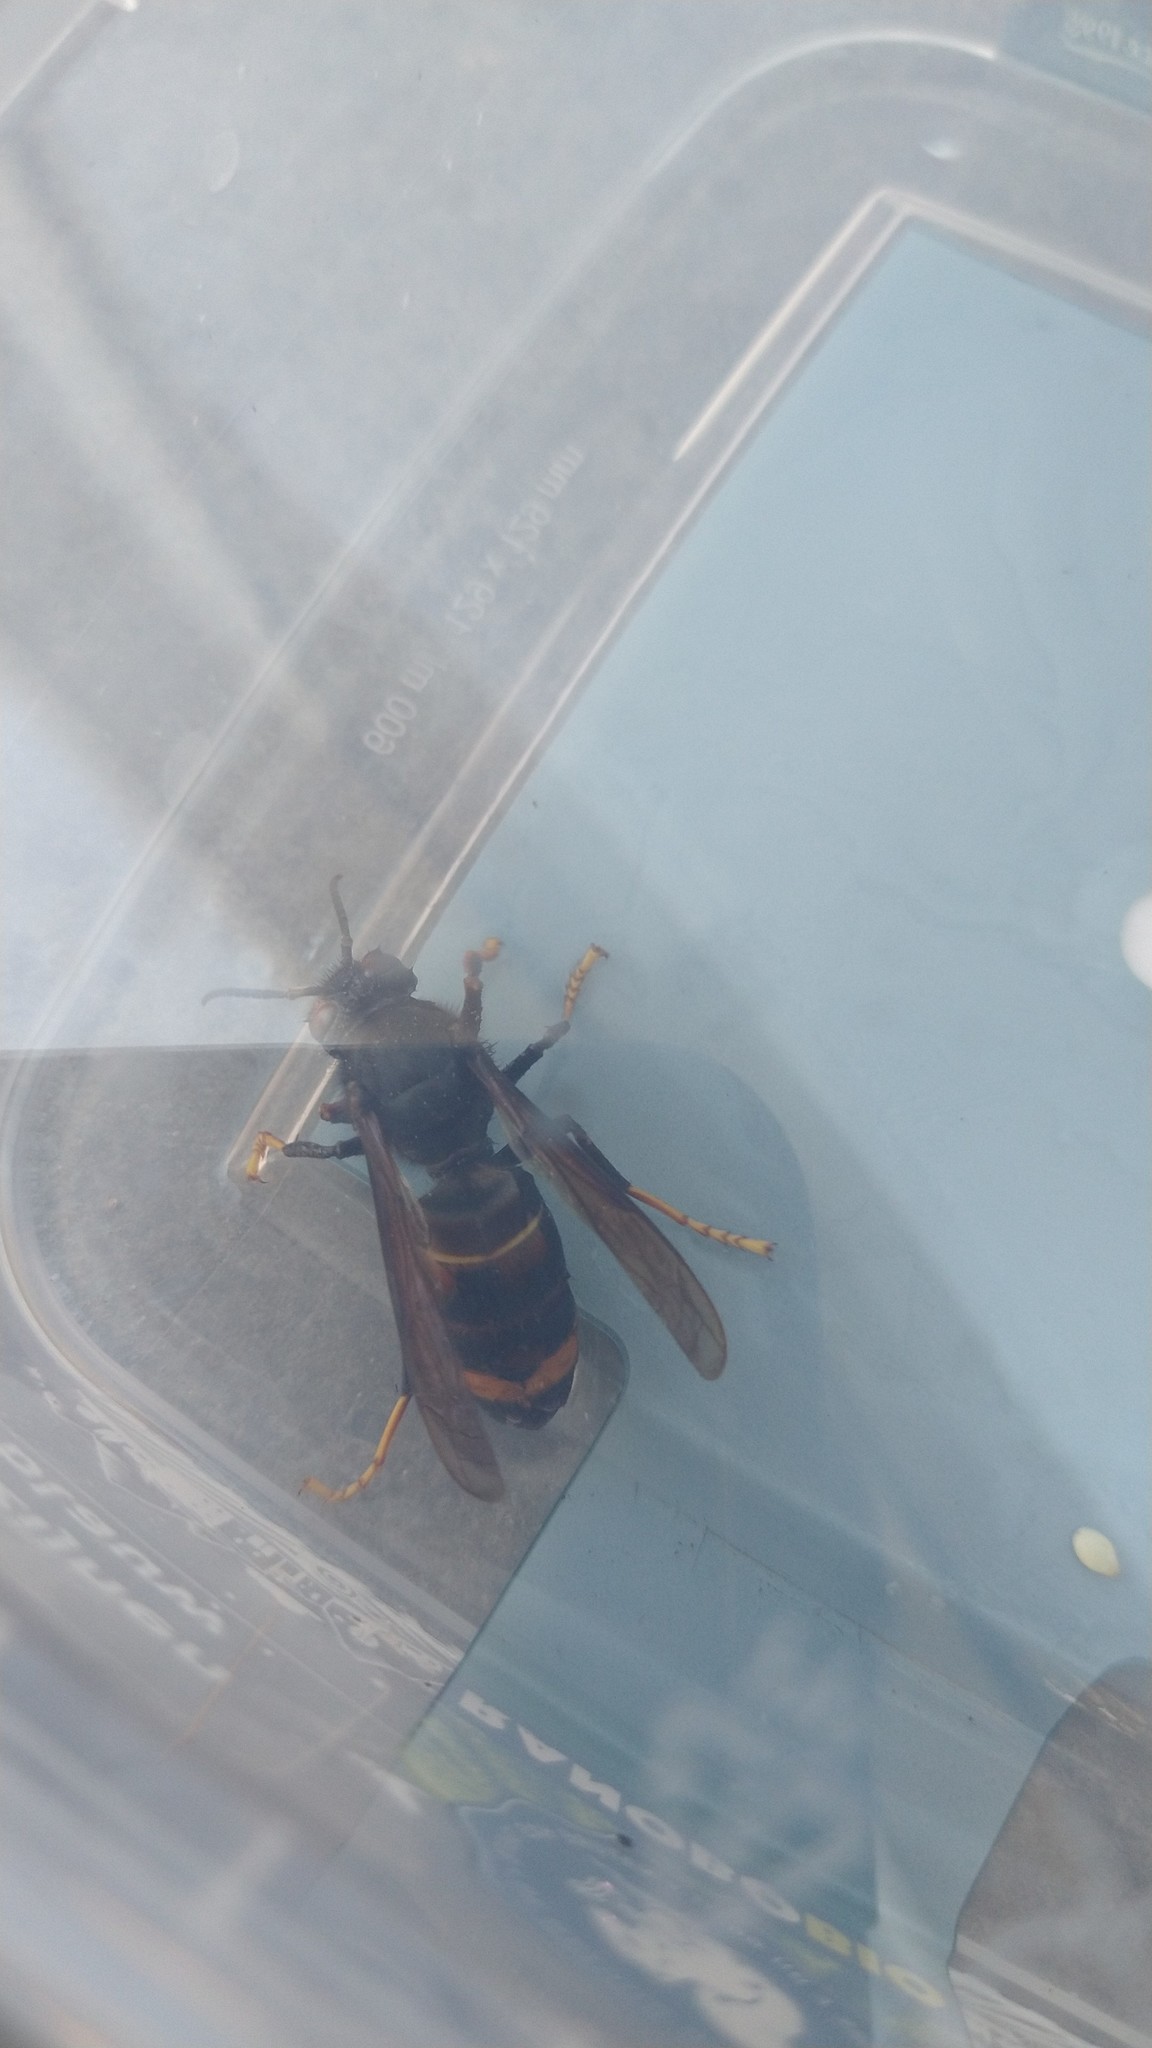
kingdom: Animalia
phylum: Arthropoda
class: Insecta
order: Hymenoptera
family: Vespidae
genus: Vespa
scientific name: Vespa velutina
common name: Asian hornet
